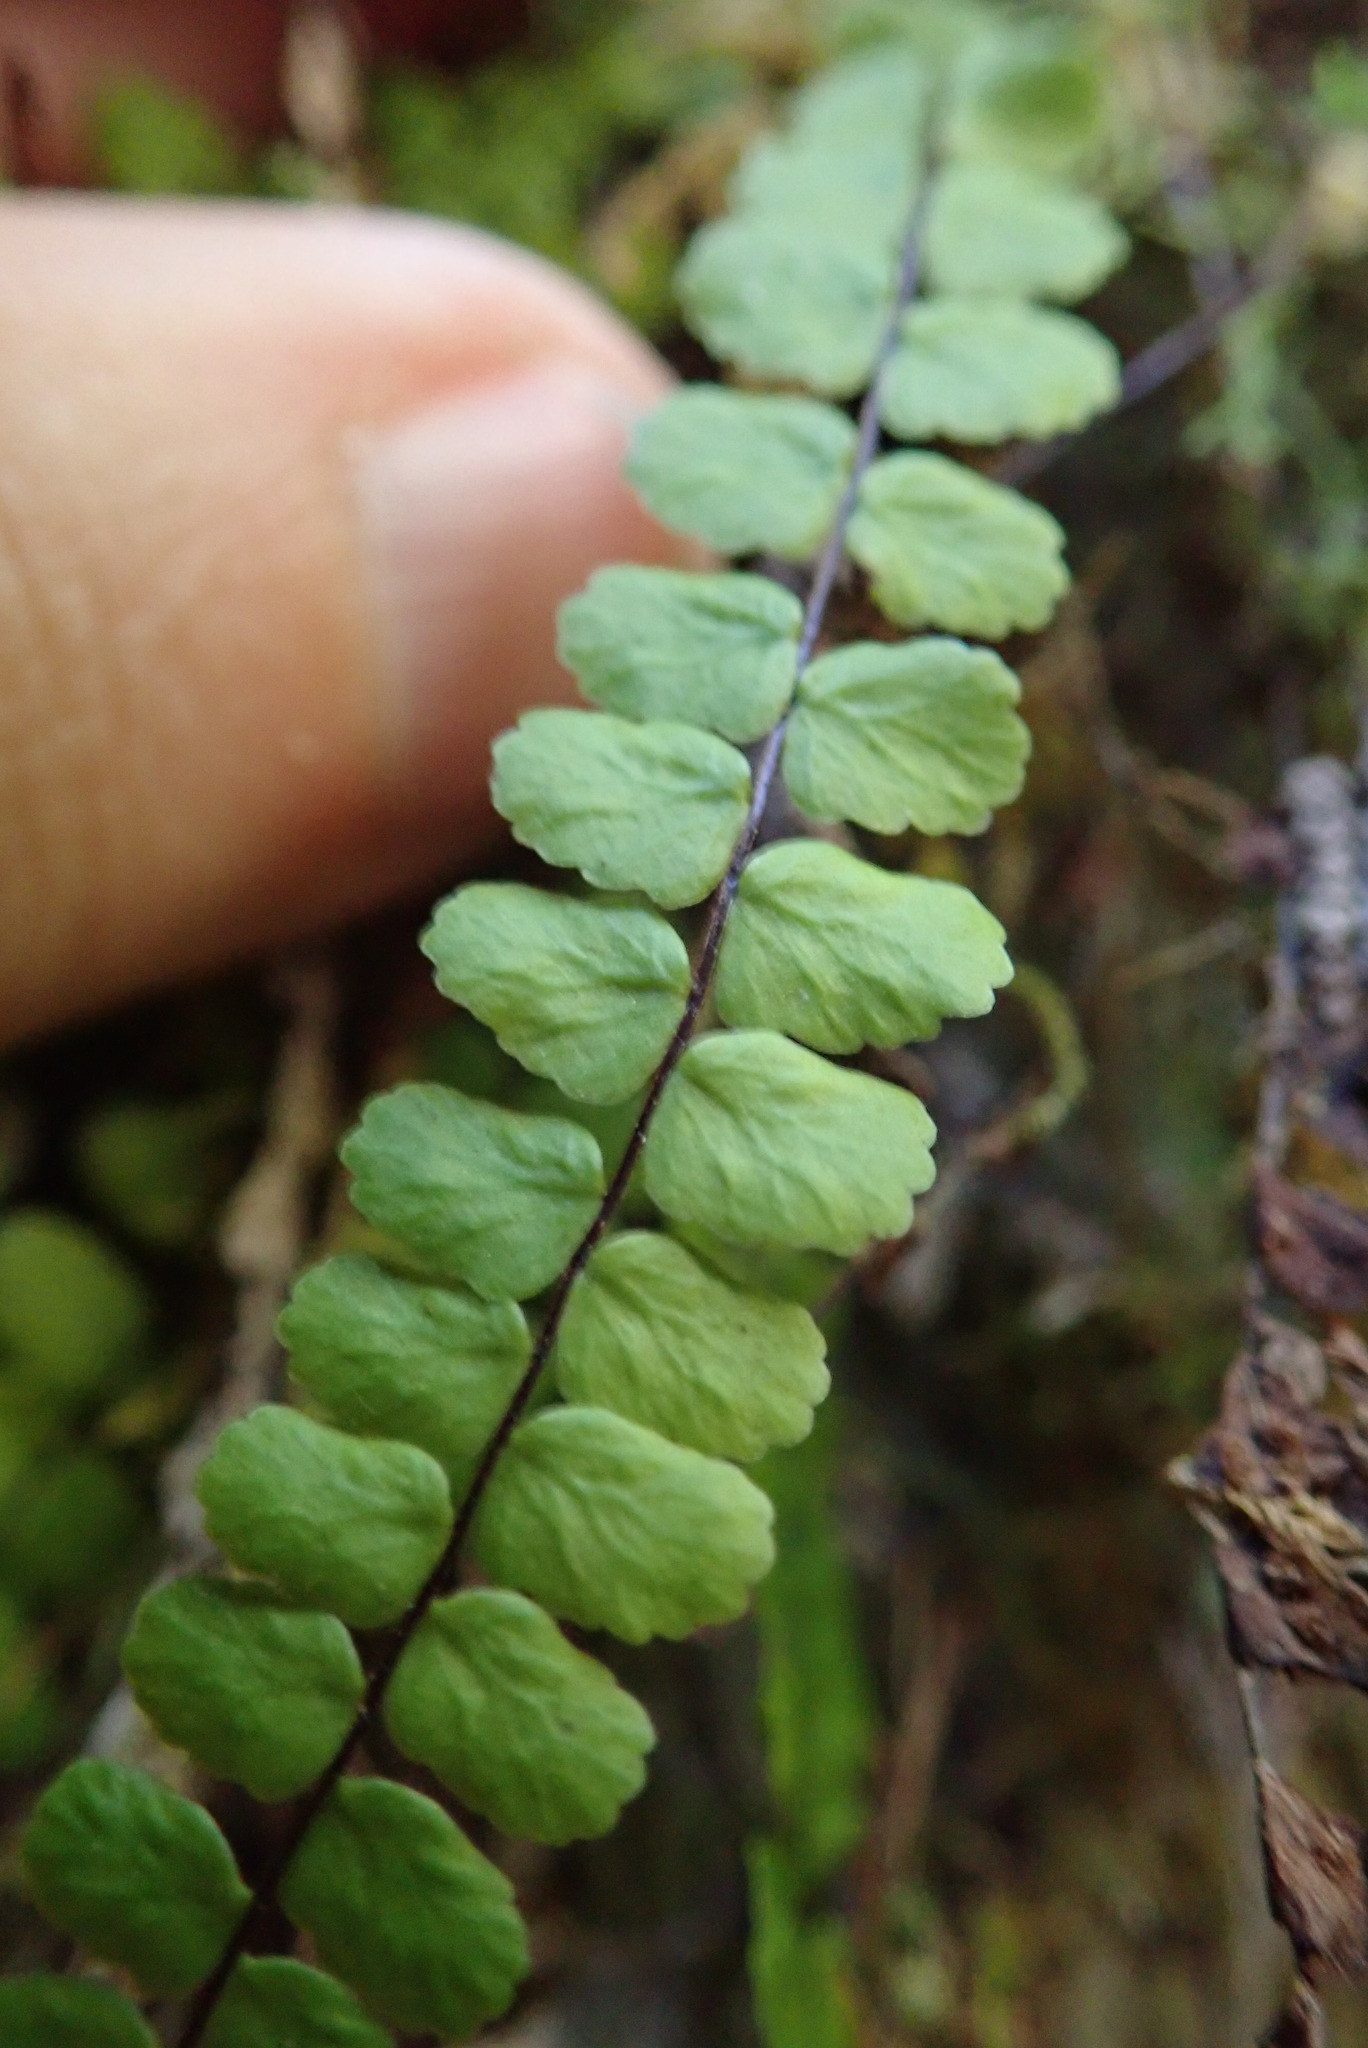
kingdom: Plantae
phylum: Tracheophyta
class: Polypodiopsida
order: Polypodiales
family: Aspleniaceae
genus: Asplenium
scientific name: Asplenium trichomanes
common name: Maidenhair spleenwort
